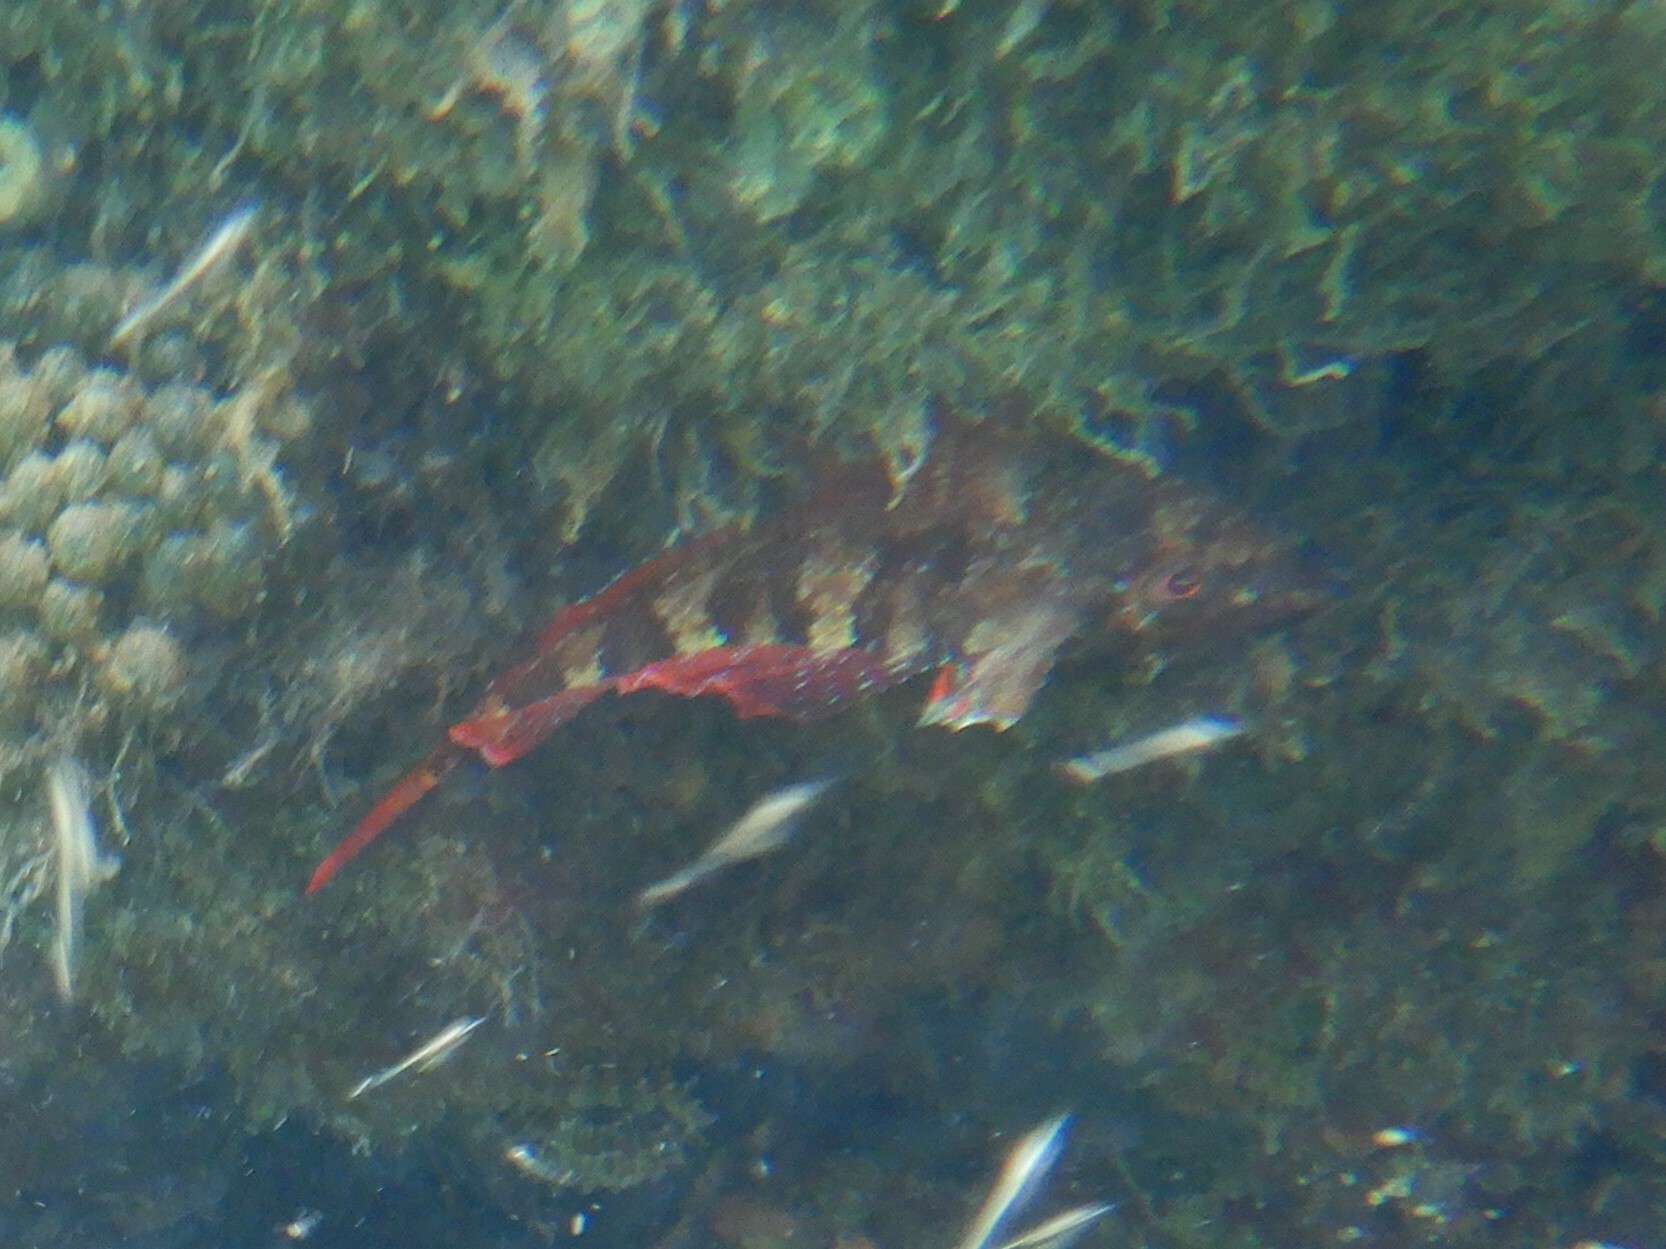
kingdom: Animalia
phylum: Chordata
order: Perciformes
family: Tripterygiidae
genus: Tripterygion
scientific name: Tripterygion tripteronotum
